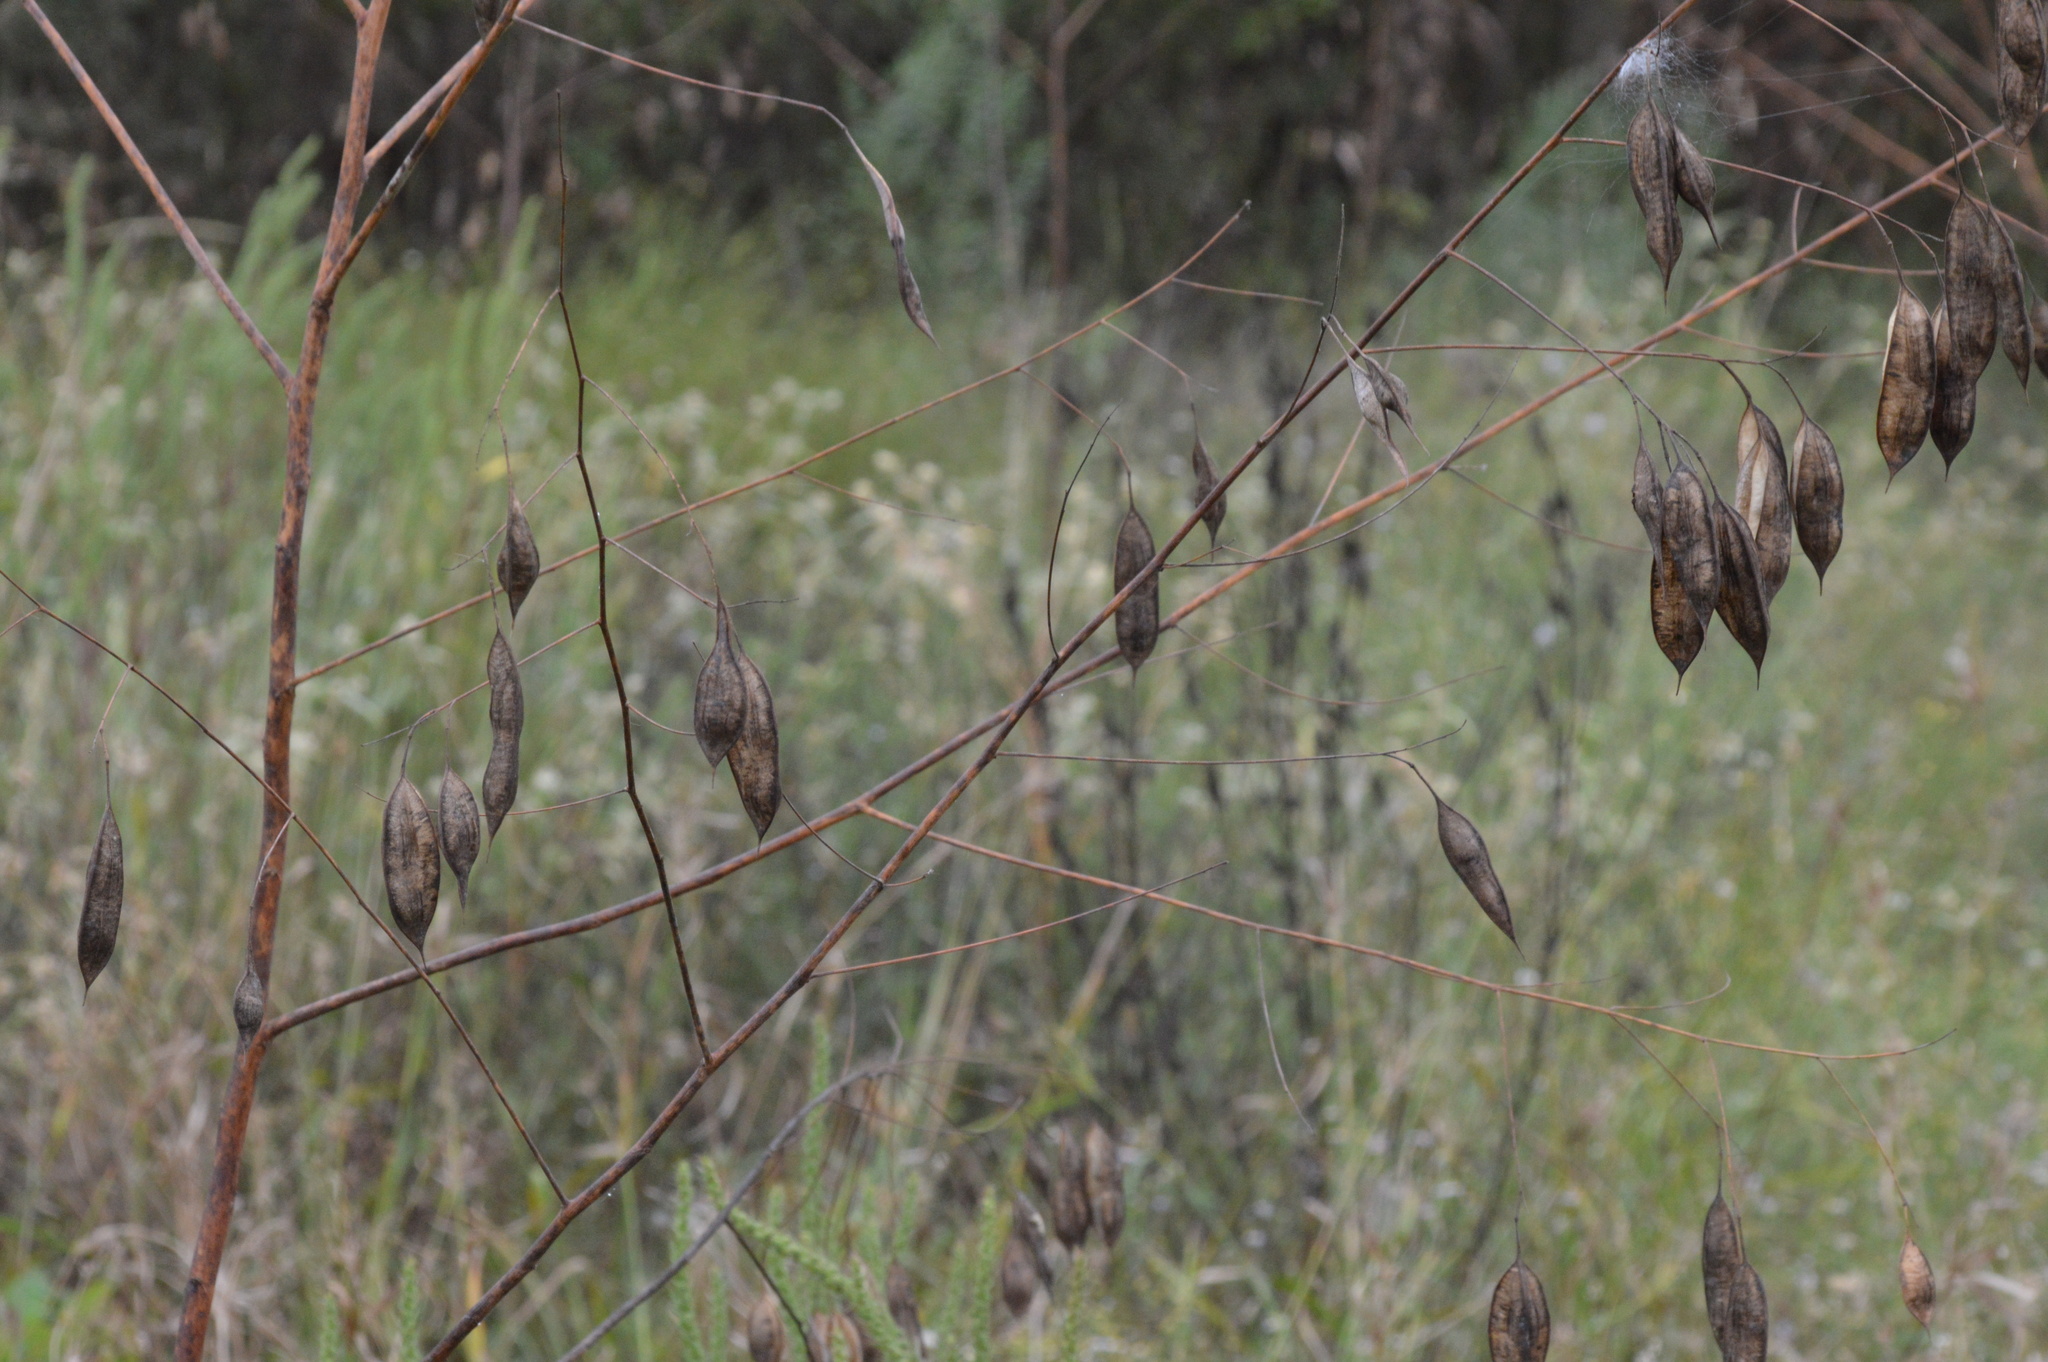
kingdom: Plantae
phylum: Tracheophyta
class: Magnoliopsida
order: Fabales
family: Fabaceae
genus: Sesbania
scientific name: Sesbania vesicaria
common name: Bagpod
